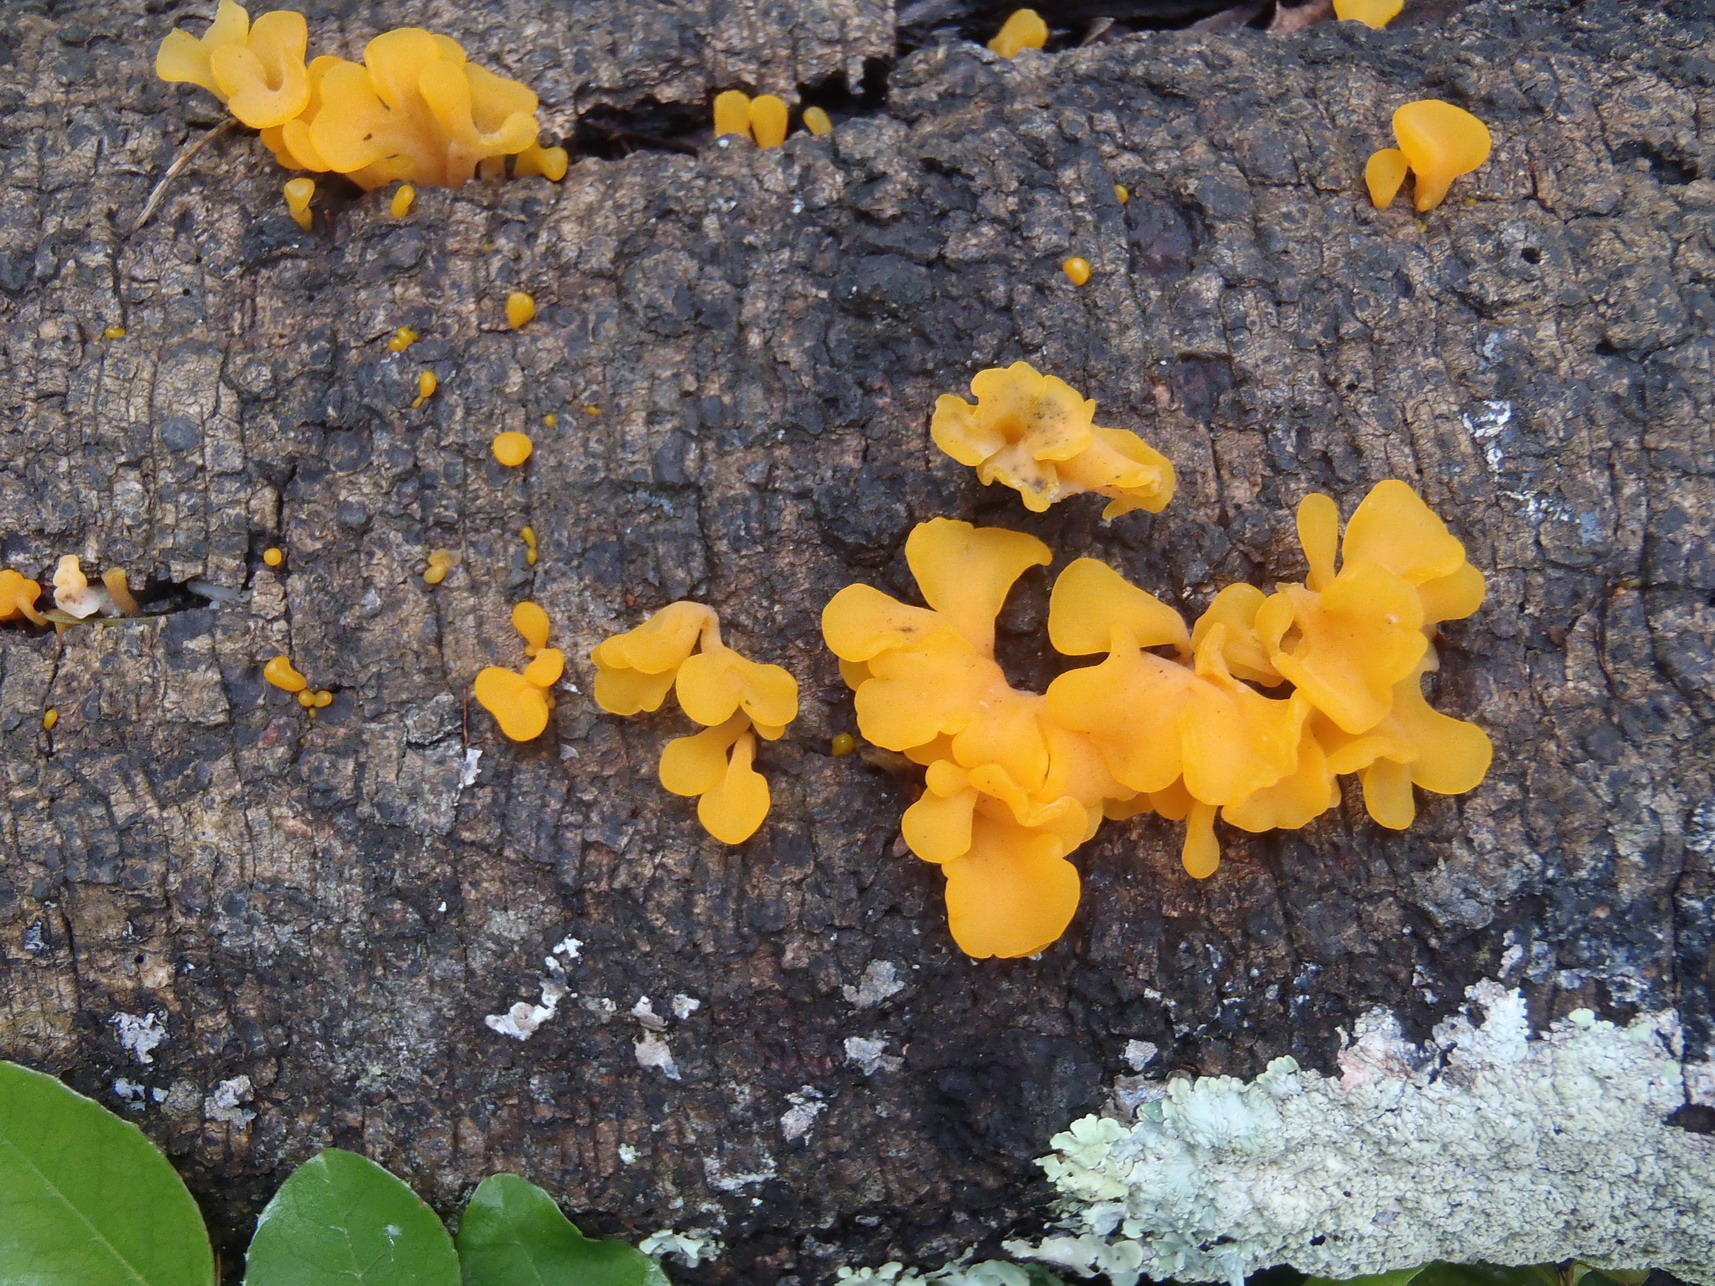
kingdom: Fungi
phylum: Basidiomycota
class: Dacrymycetes
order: Dacrymycetales
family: Dacrymycetaceae
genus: Dacrymyces
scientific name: Dacrymyces spathularius
